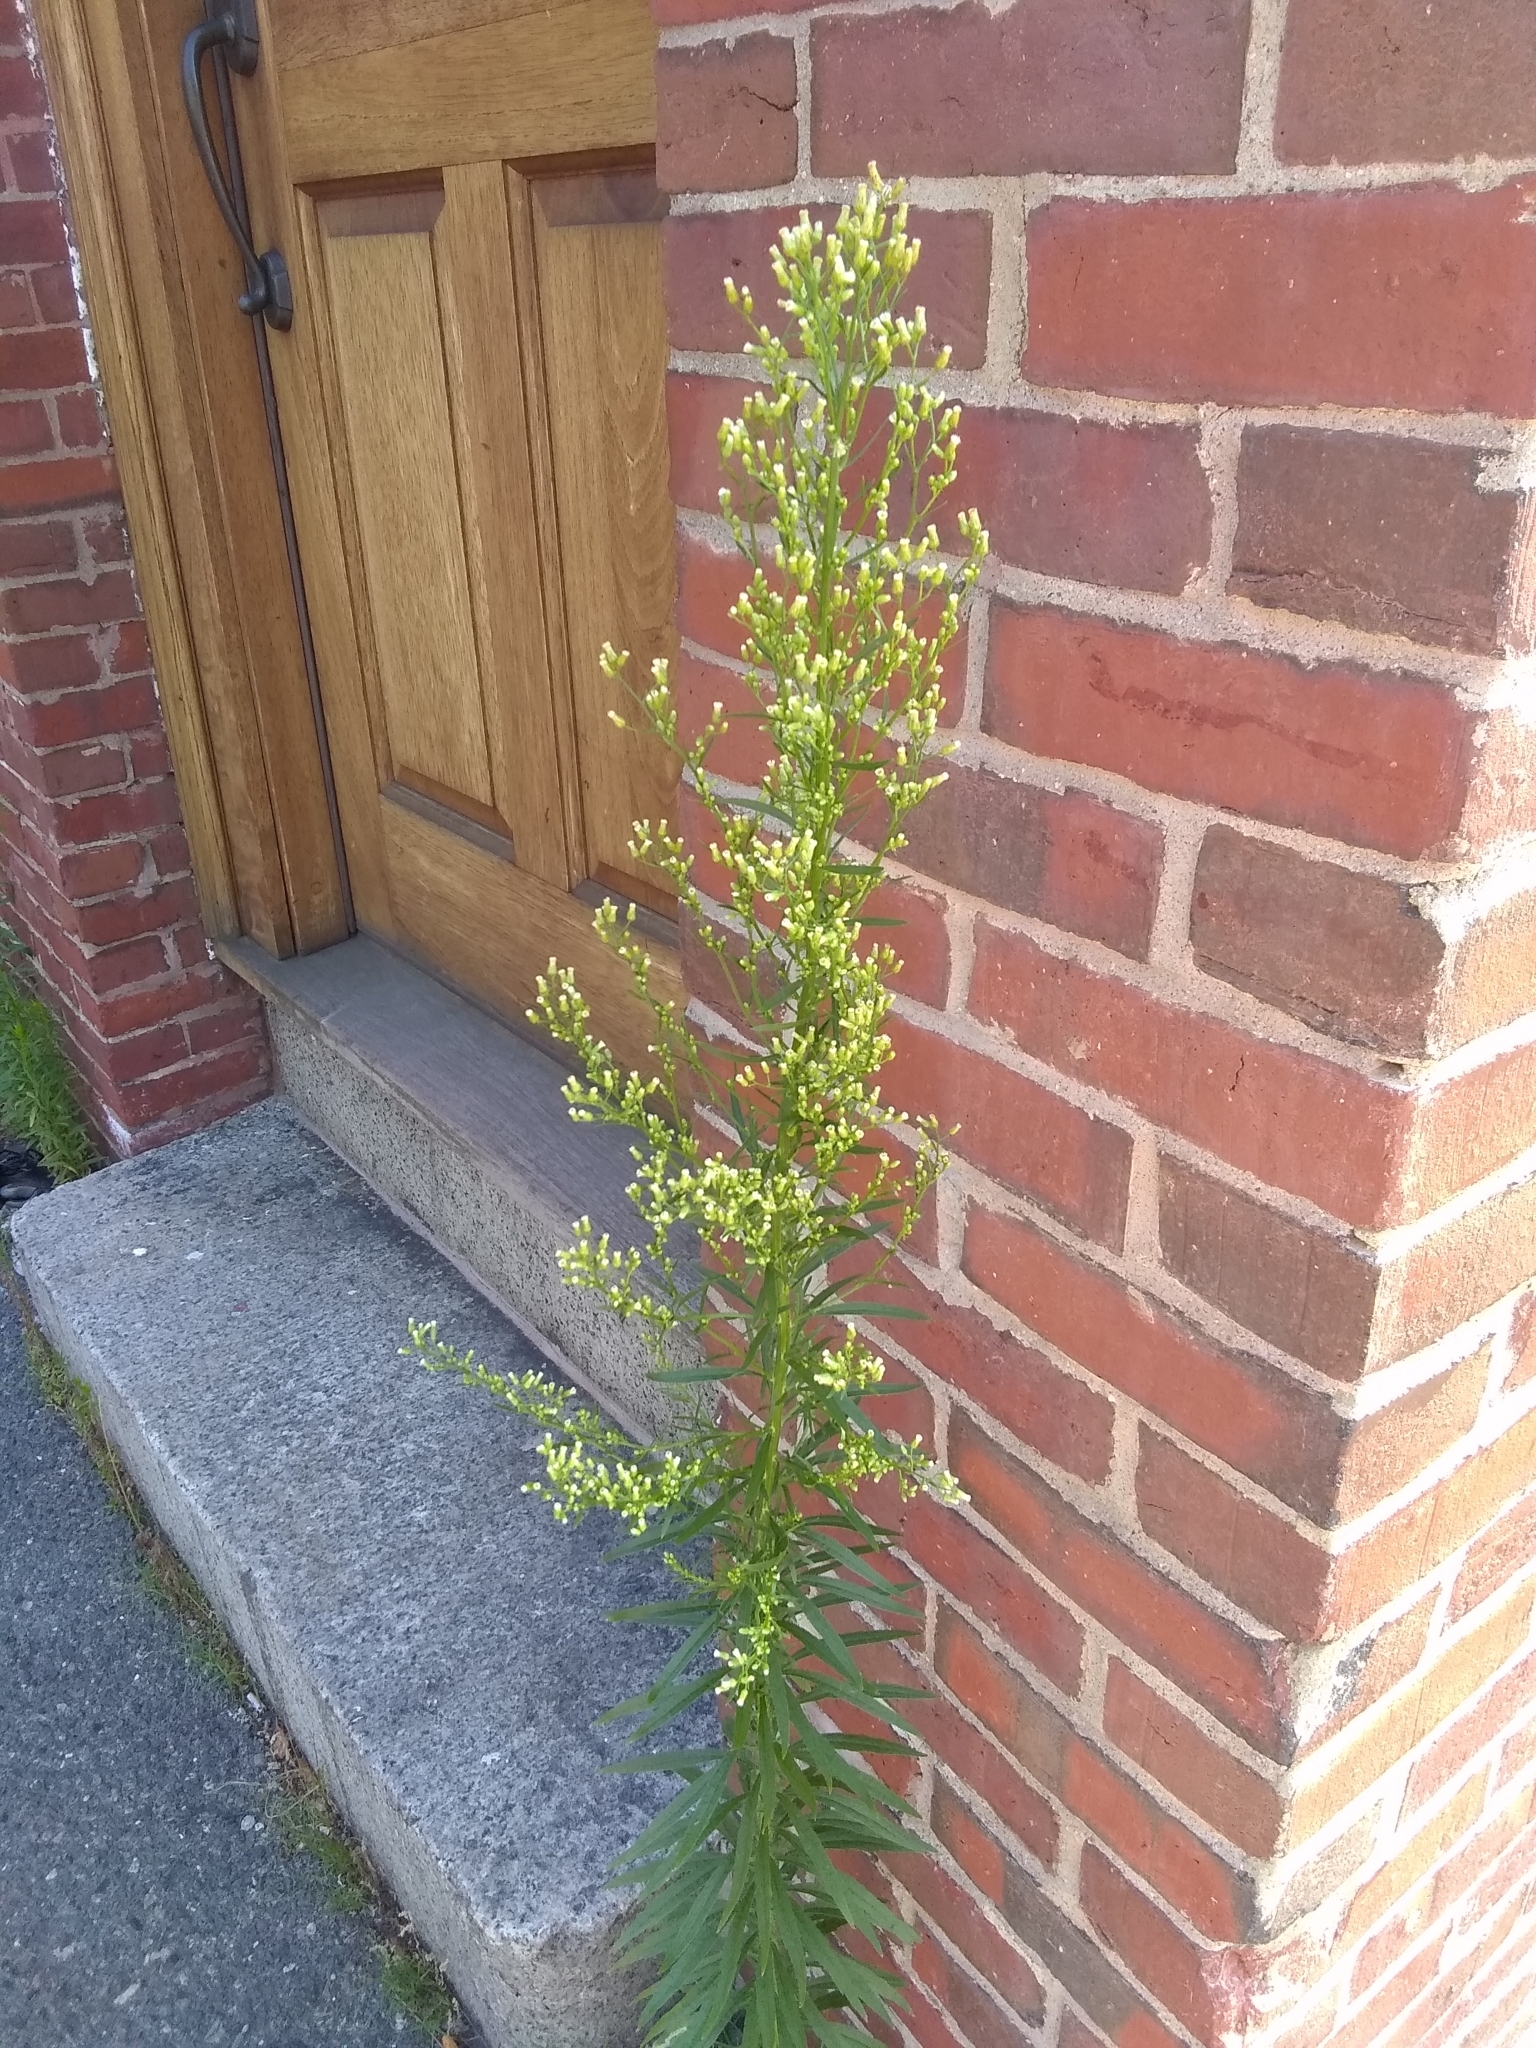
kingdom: Plantae
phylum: Tracheophyta
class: Magnoliopsida
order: Asterales
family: Asteraceae
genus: Erigeron
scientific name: Erigeron canadensis
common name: Canadian fleabane
